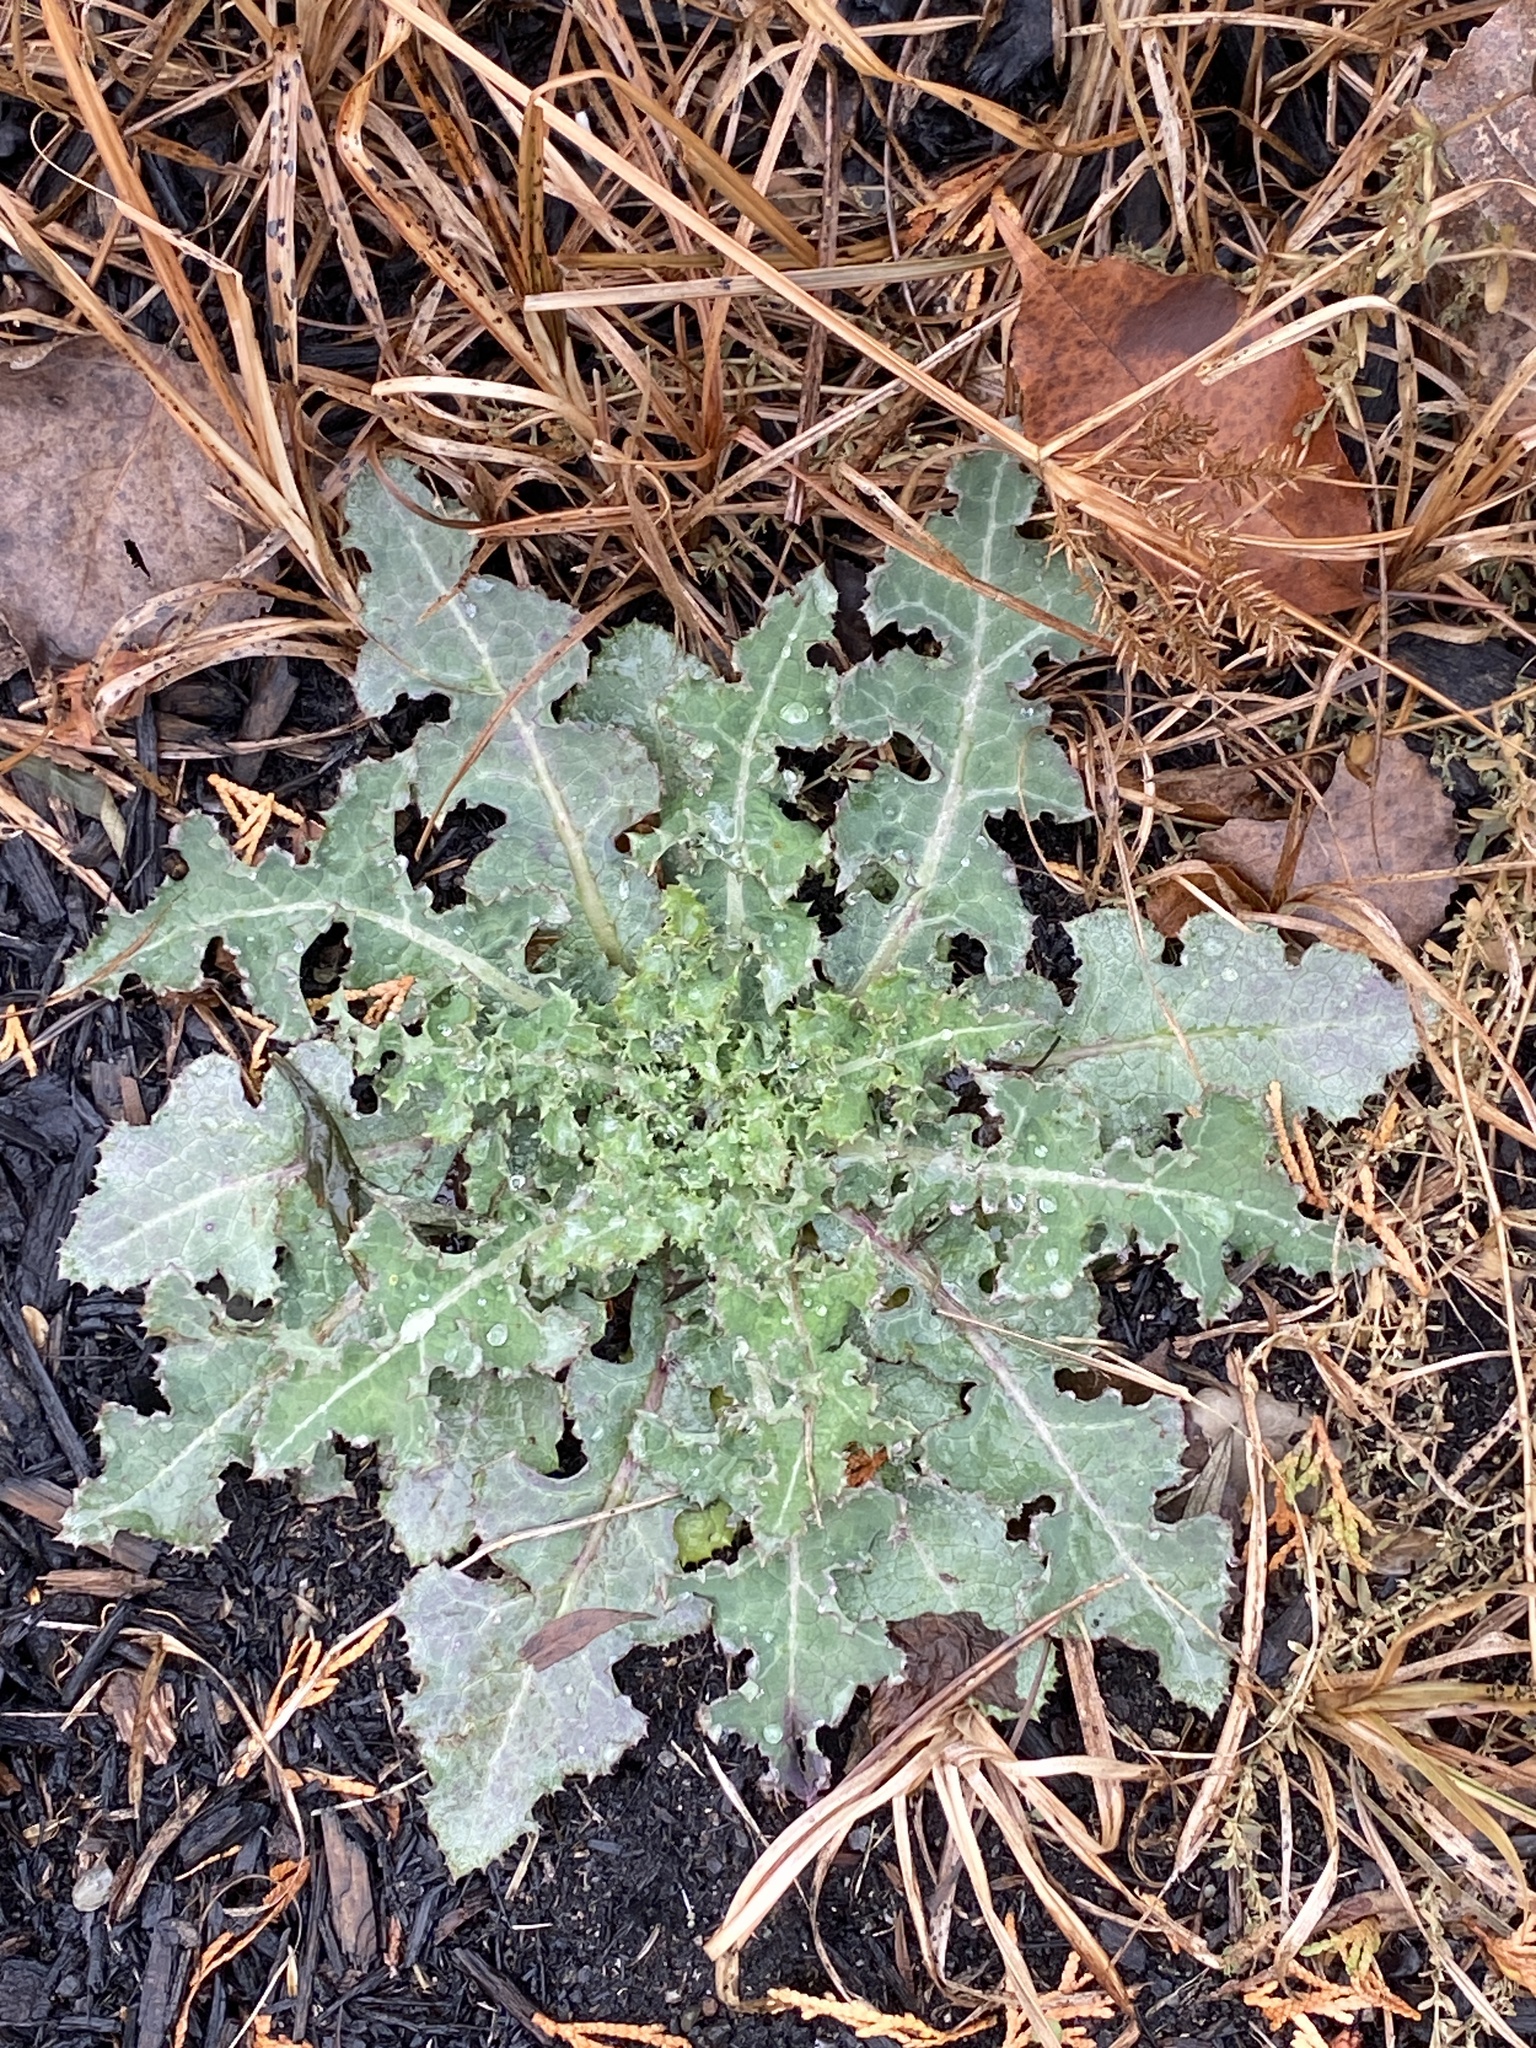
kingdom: Plantae
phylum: Tracheophyta
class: Magnoliopsida
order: Asterales
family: Asteraceae
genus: Sonchus
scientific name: Sonchus
